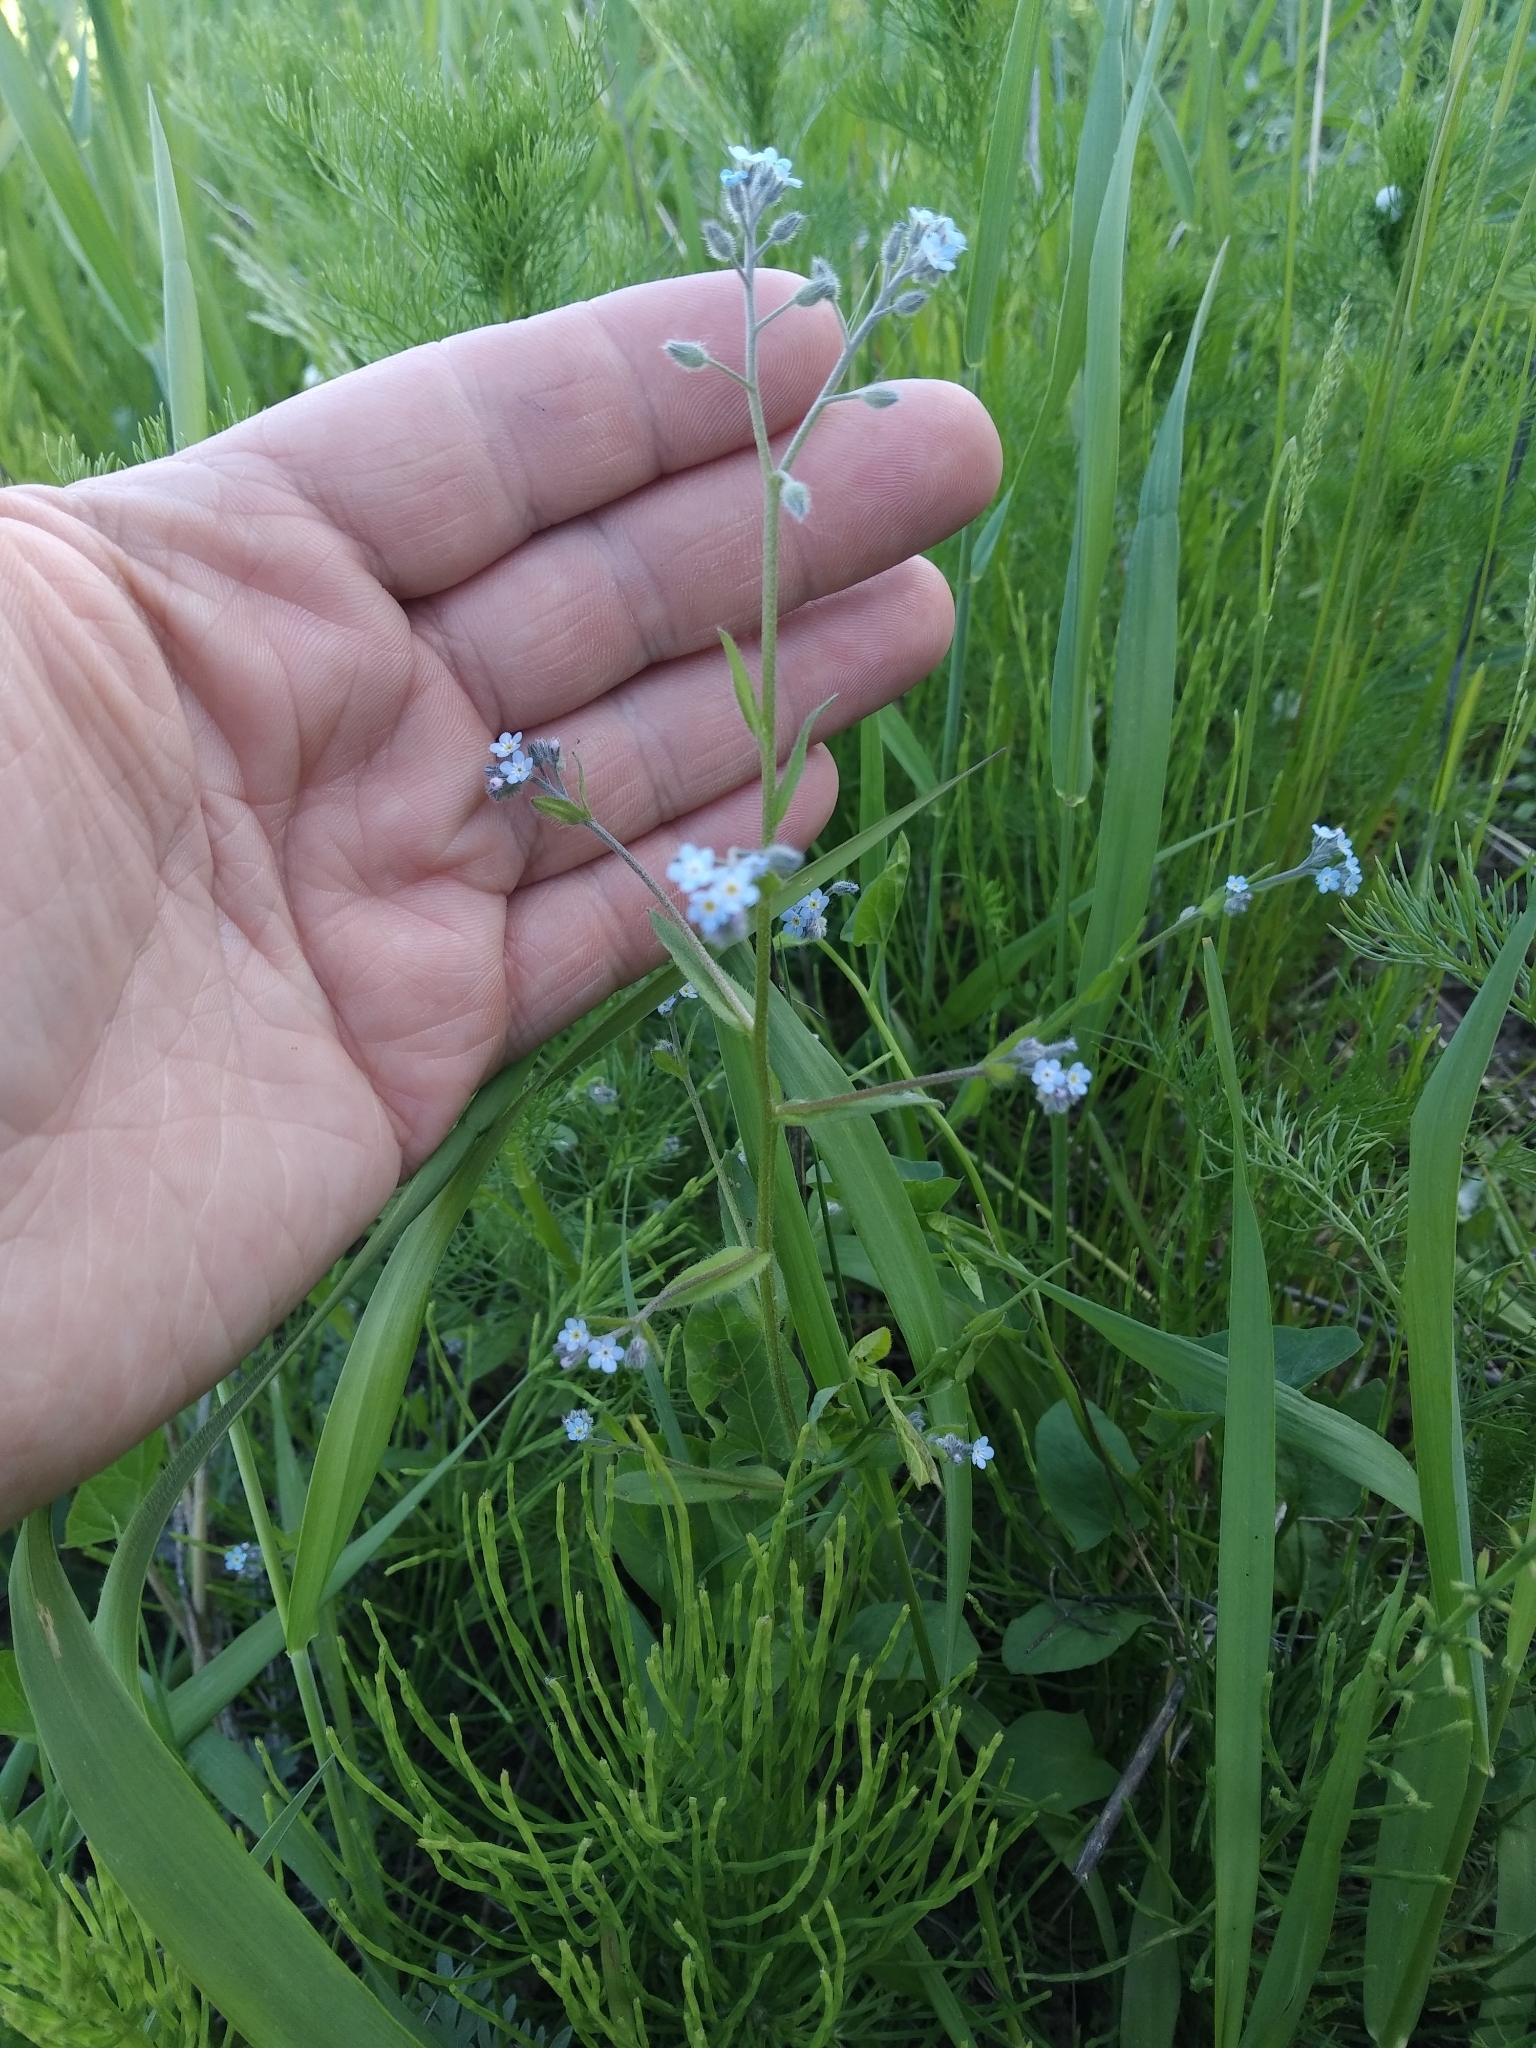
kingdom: Plantae
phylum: Tracheophyta
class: Magnoliopsida
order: Boraginales
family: Boraginaceae
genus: Myosotis
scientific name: Myosotis arvensis
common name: Field forget-me-not
